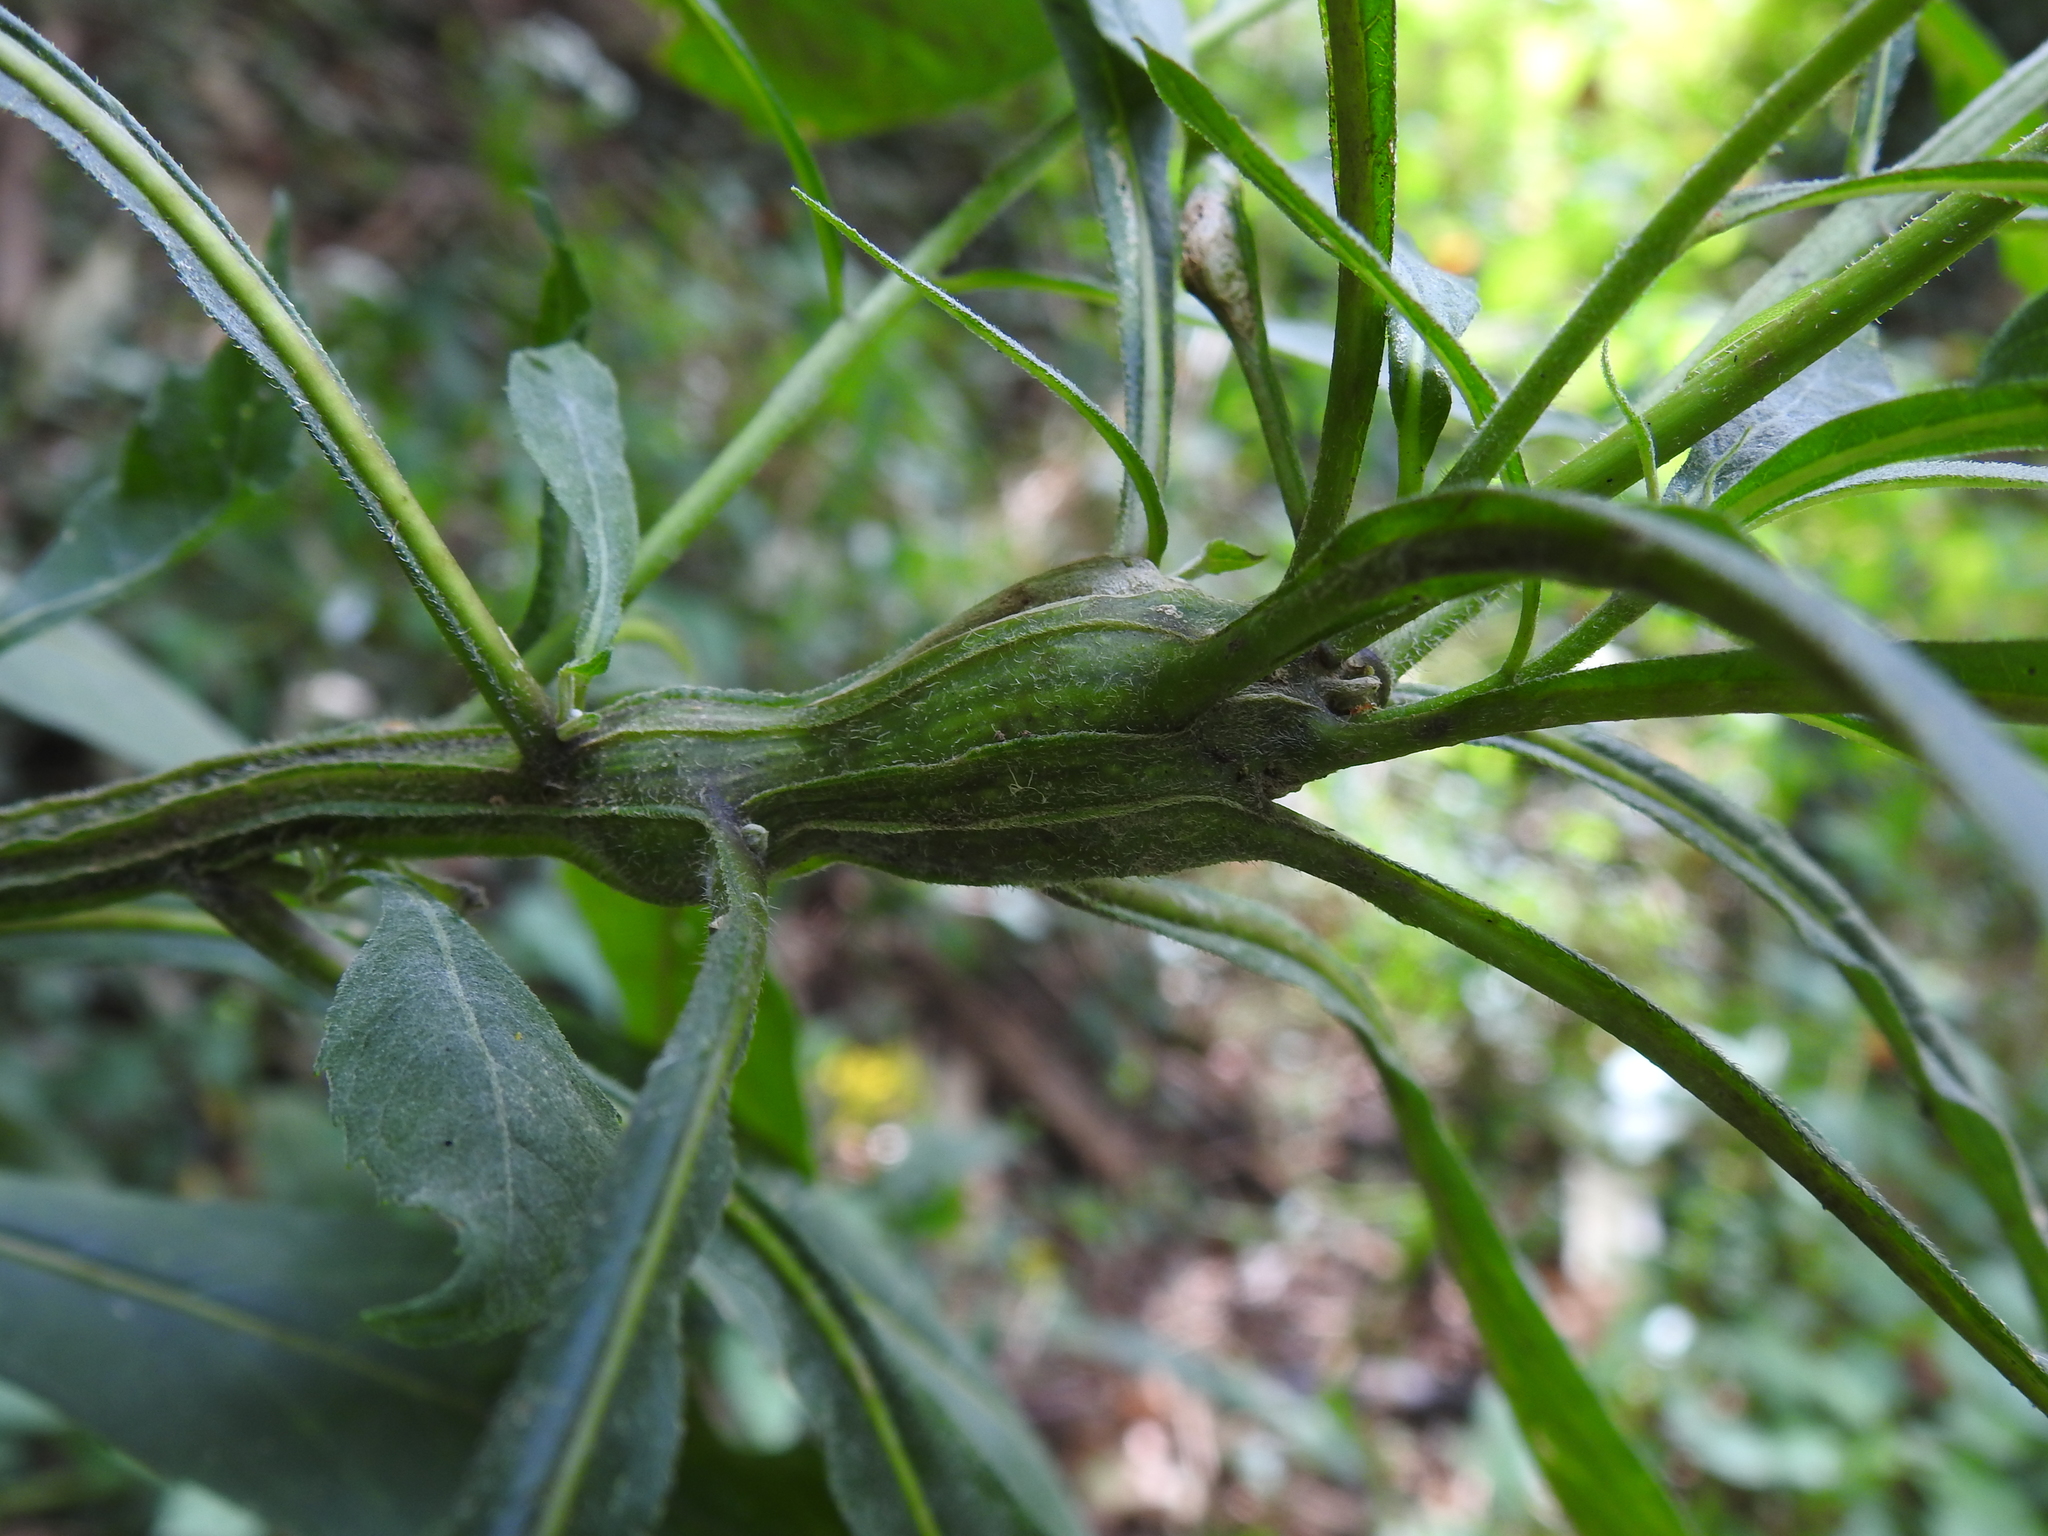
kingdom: Animalia
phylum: Arthropoda
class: Insecta
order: Diptera
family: Cecidomyiidae
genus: Neolasioptera
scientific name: Neolasioptera verbesinae
